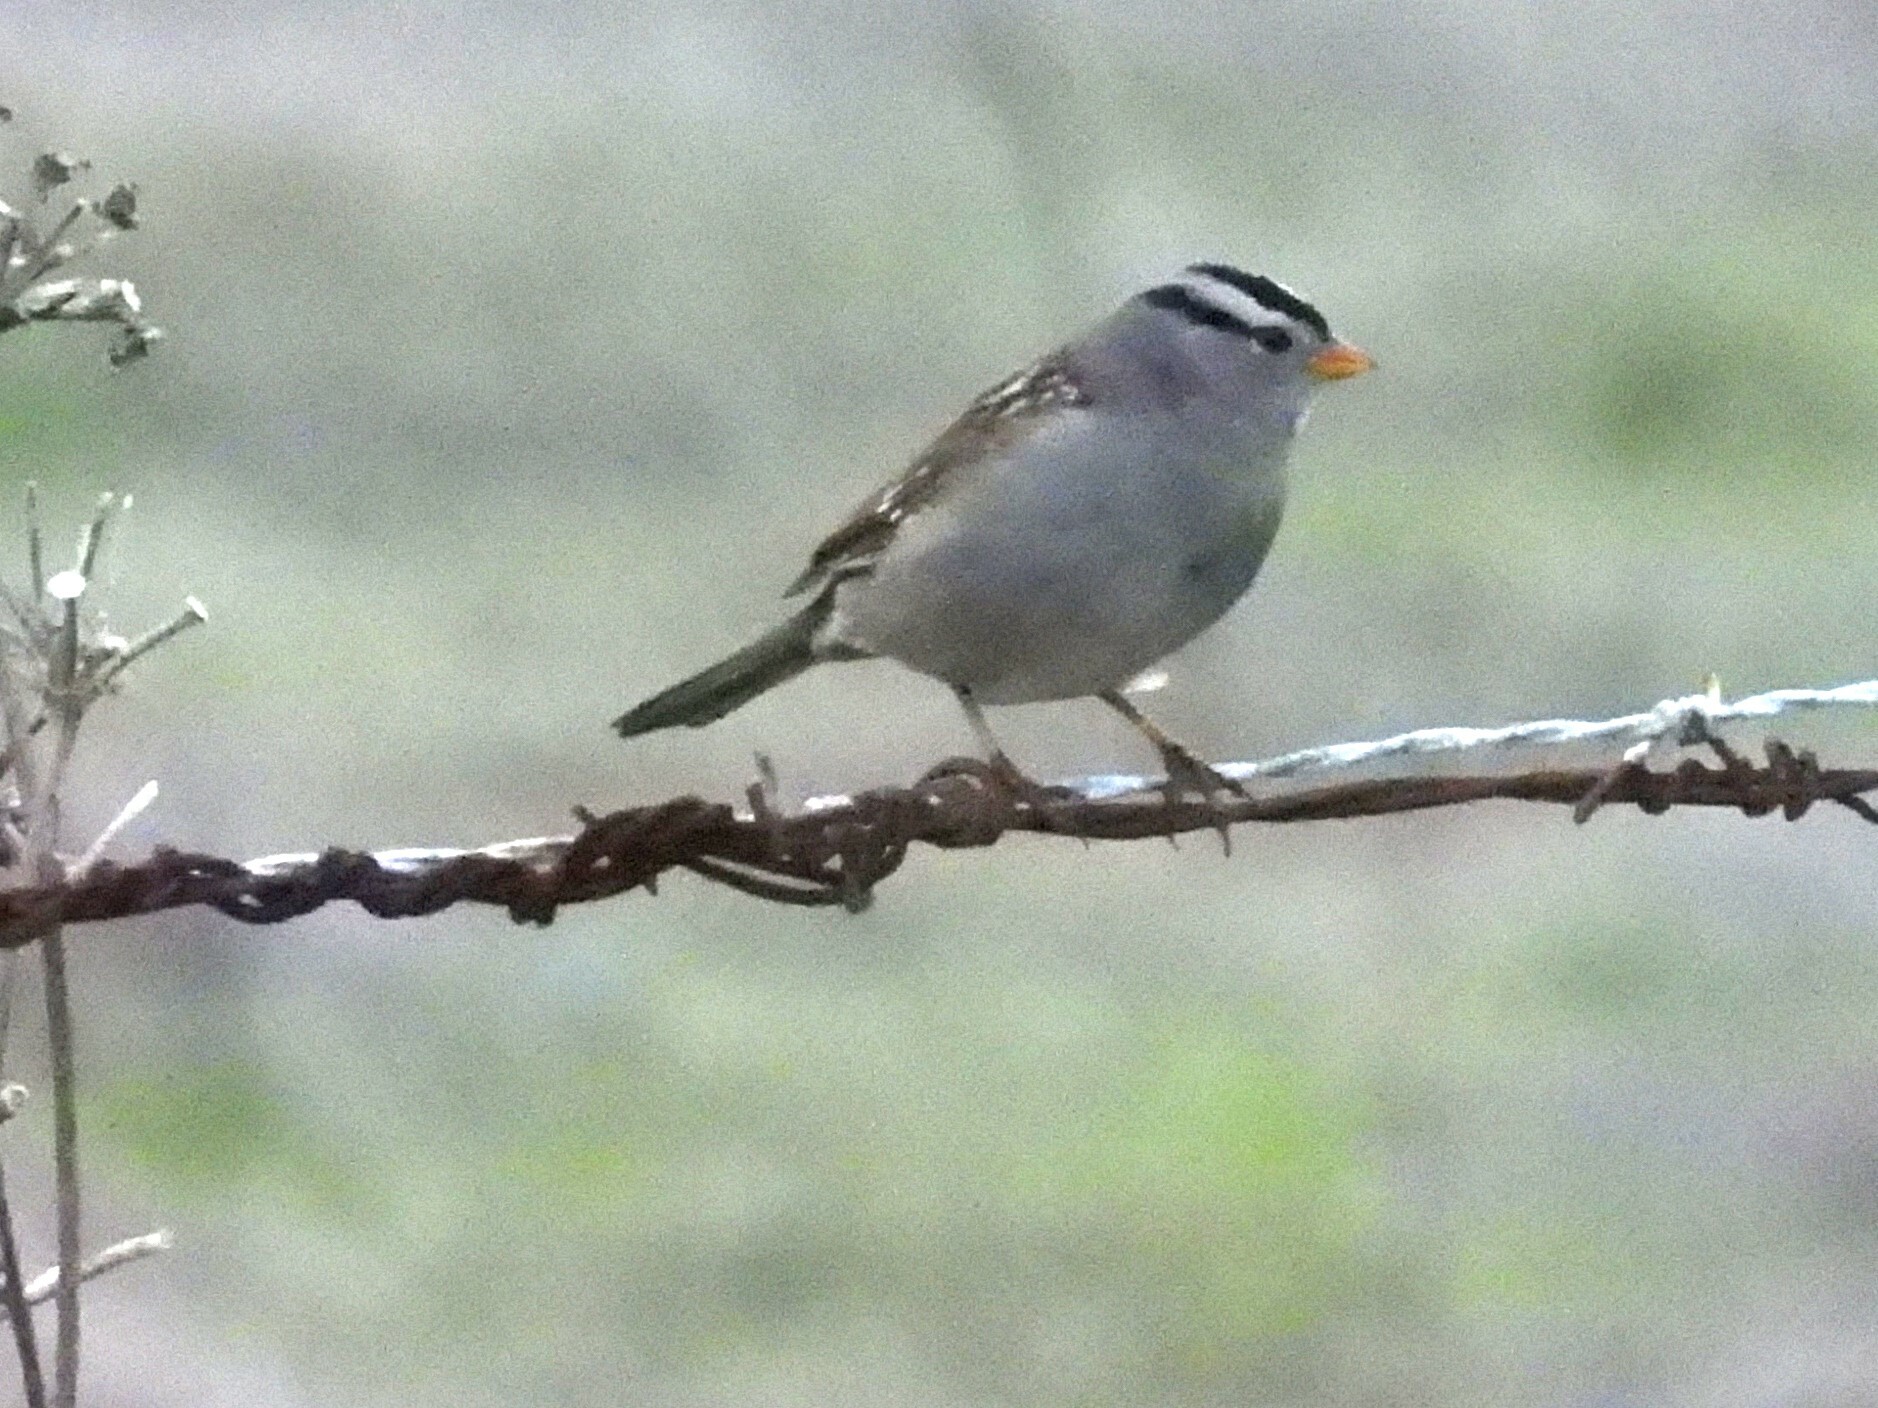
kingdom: Animalia
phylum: Chordata
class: Aves
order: Passeriformes
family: Passerellidae
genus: Zonotrichia
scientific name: Zonotrichia leucophrys
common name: White-crowned sparrow
